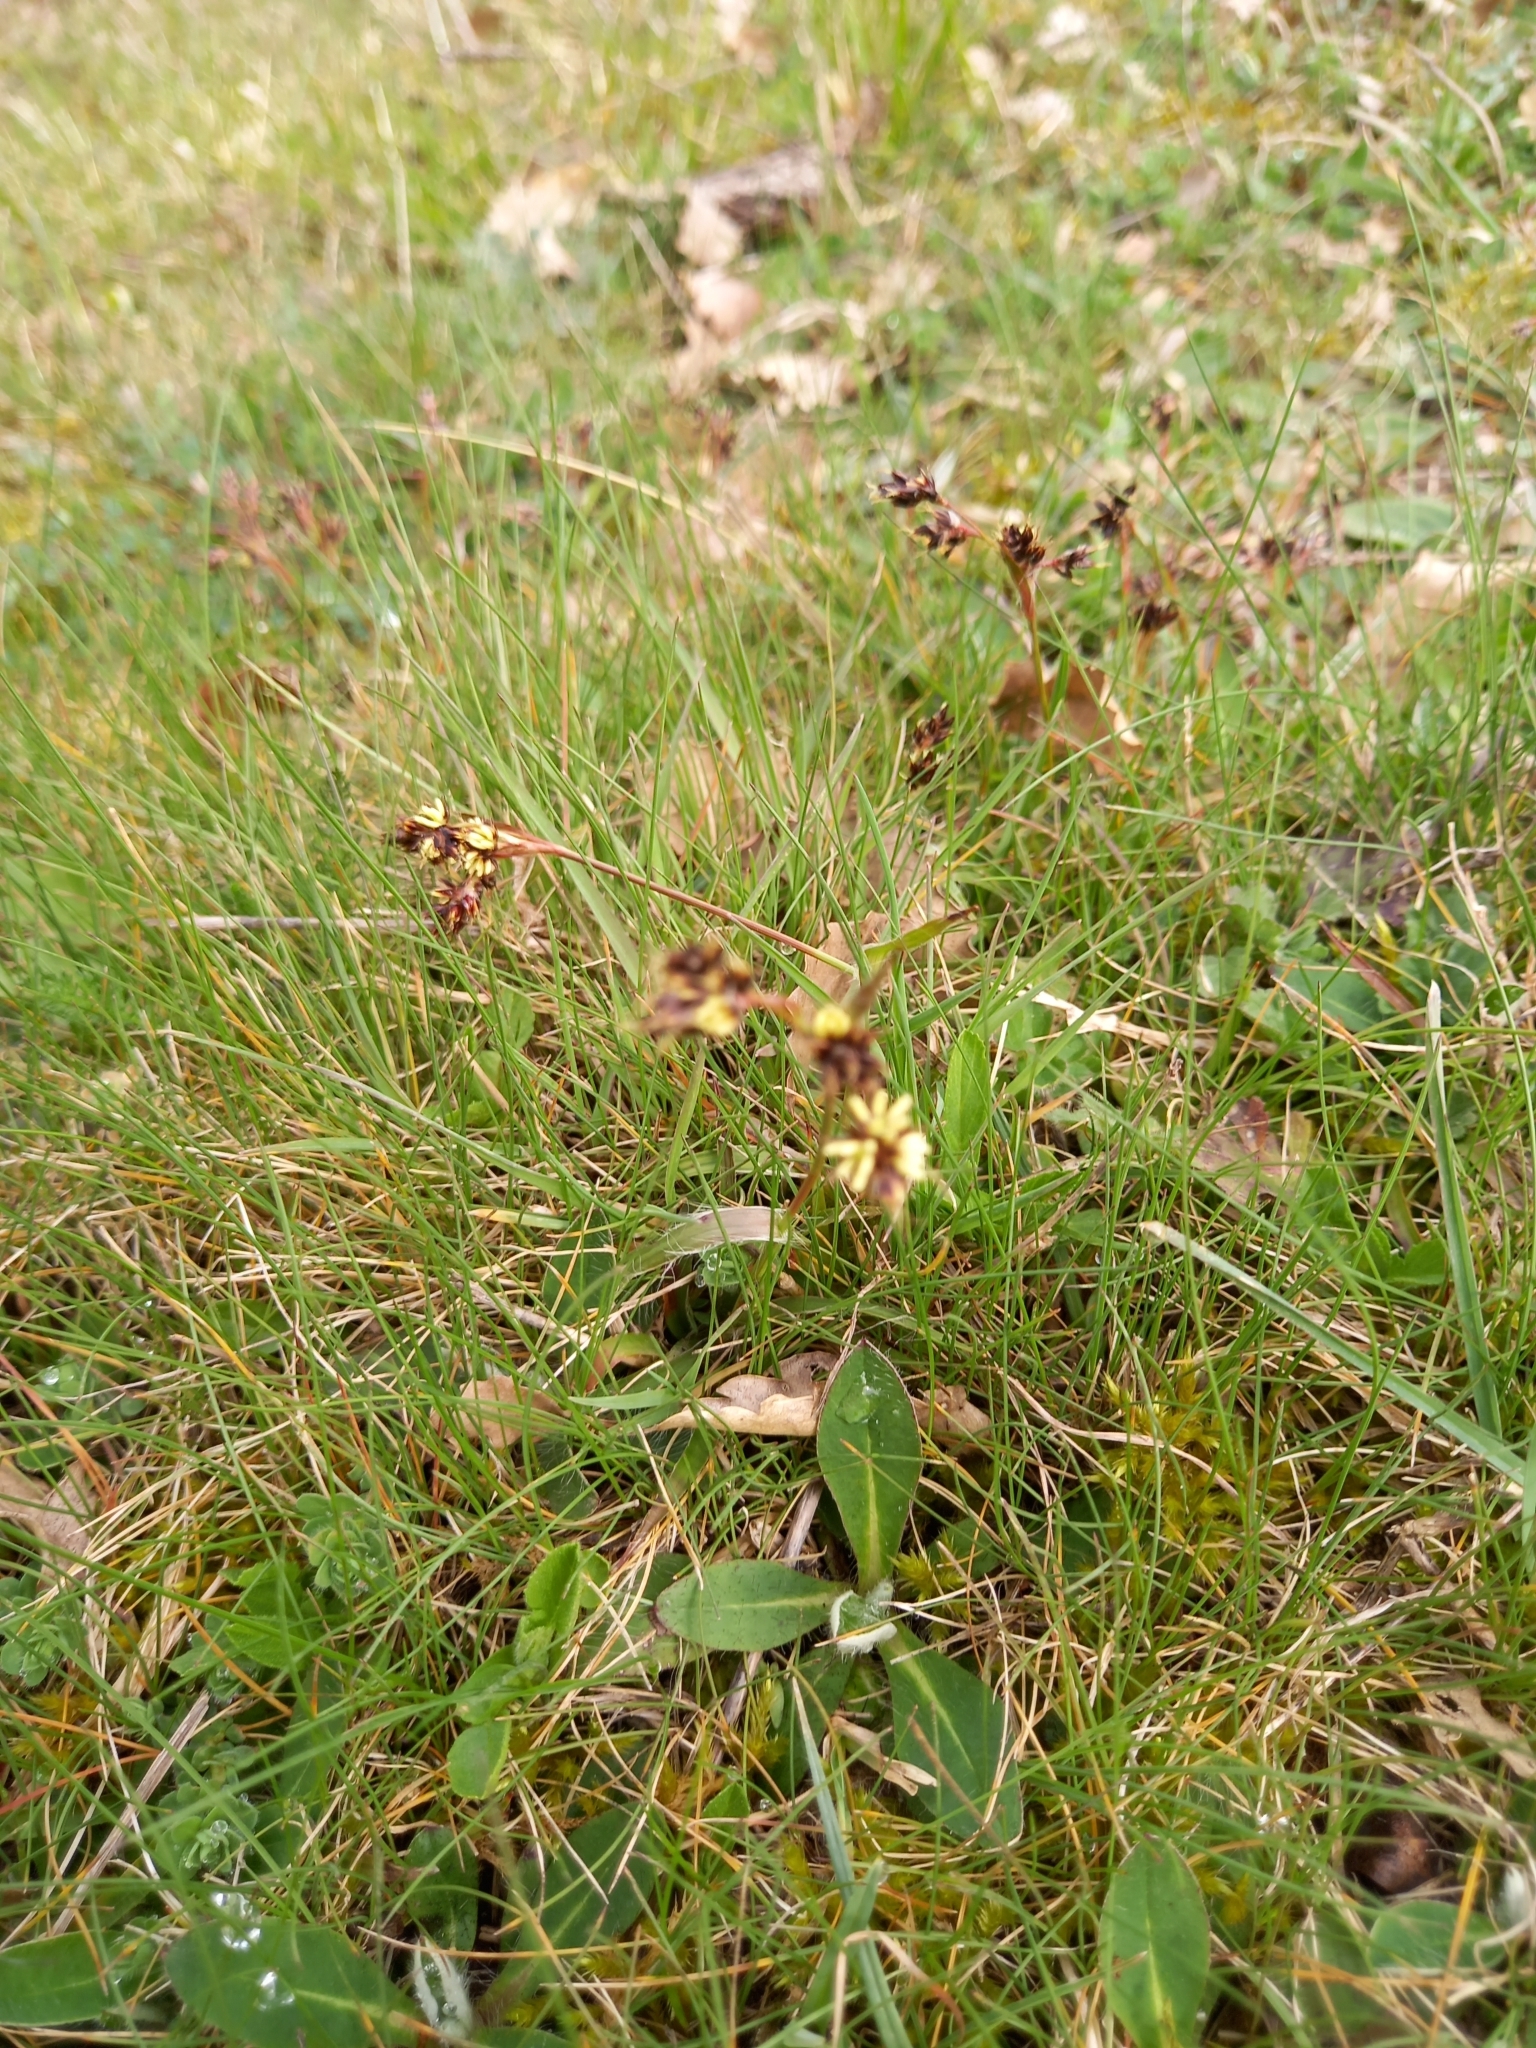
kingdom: Plantae
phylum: Tracheophyta
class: Liliopsida
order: Poales
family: Juncaceae
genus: Luzula
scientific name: Luzula campestris
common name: Field wood-rush
